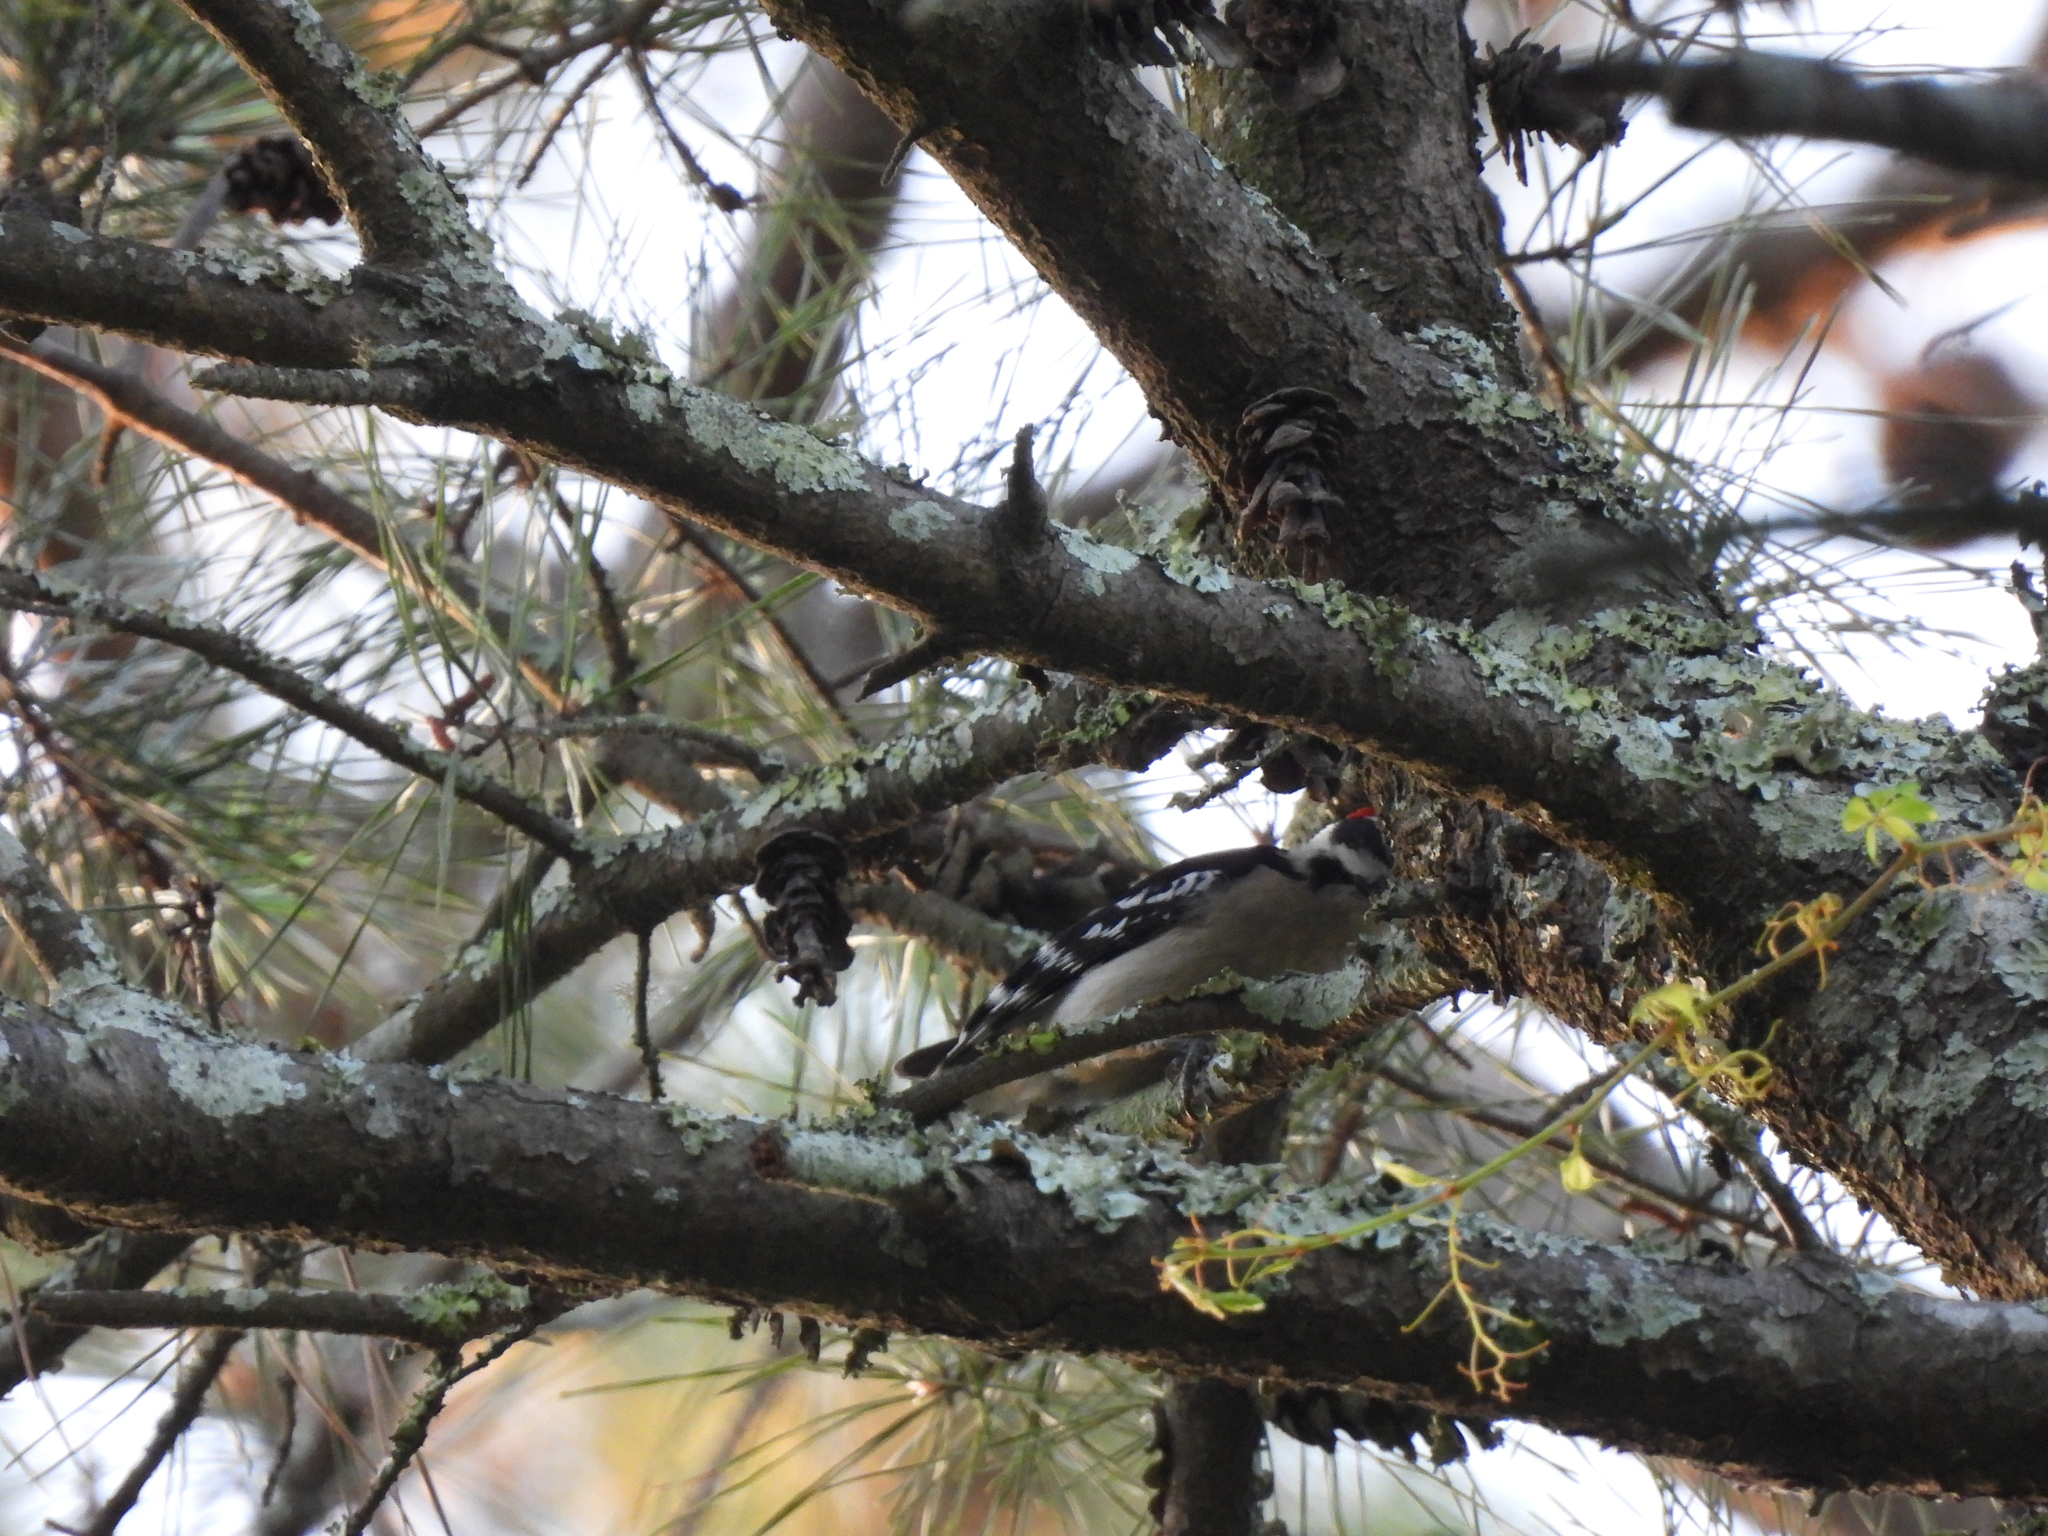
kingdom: Animalia
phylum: Chordata
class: Aves
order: Piciformes
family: Picidae
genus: Dryobates
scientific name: Dryobates pubescens
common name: Downy woodpecker
